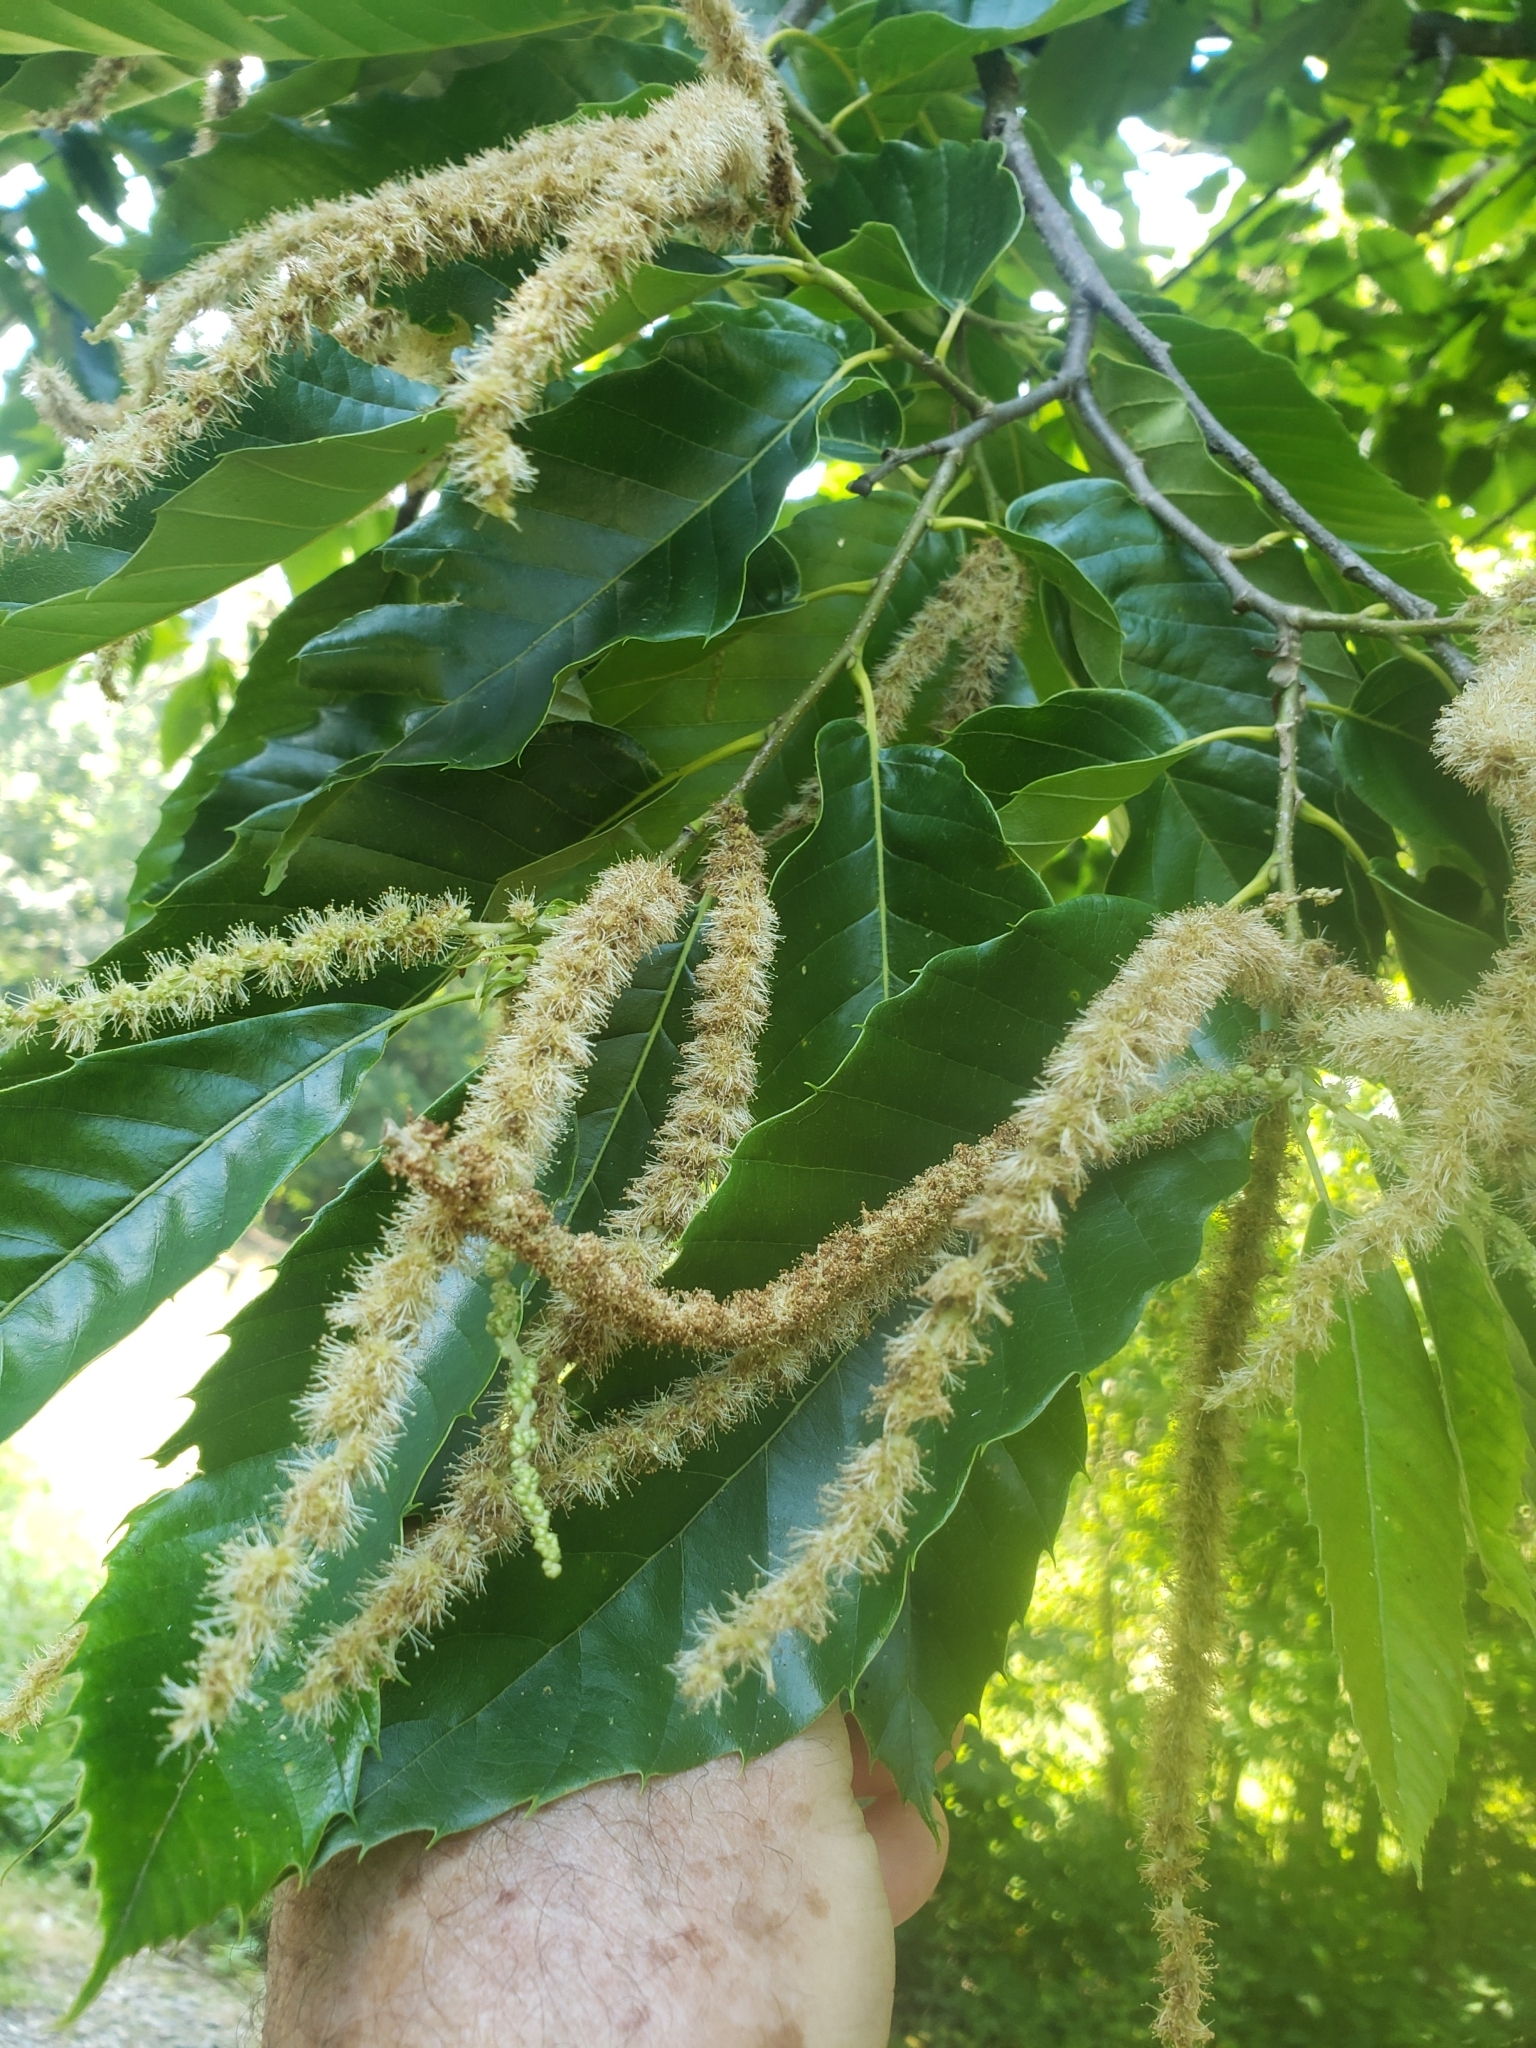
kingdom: Plantae
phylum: Tracheophyta
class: Magnoliopsida
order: Fagales
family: Fagaceae
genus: Castanea
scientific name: Castanea mollissima
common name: Chinese chestnut
